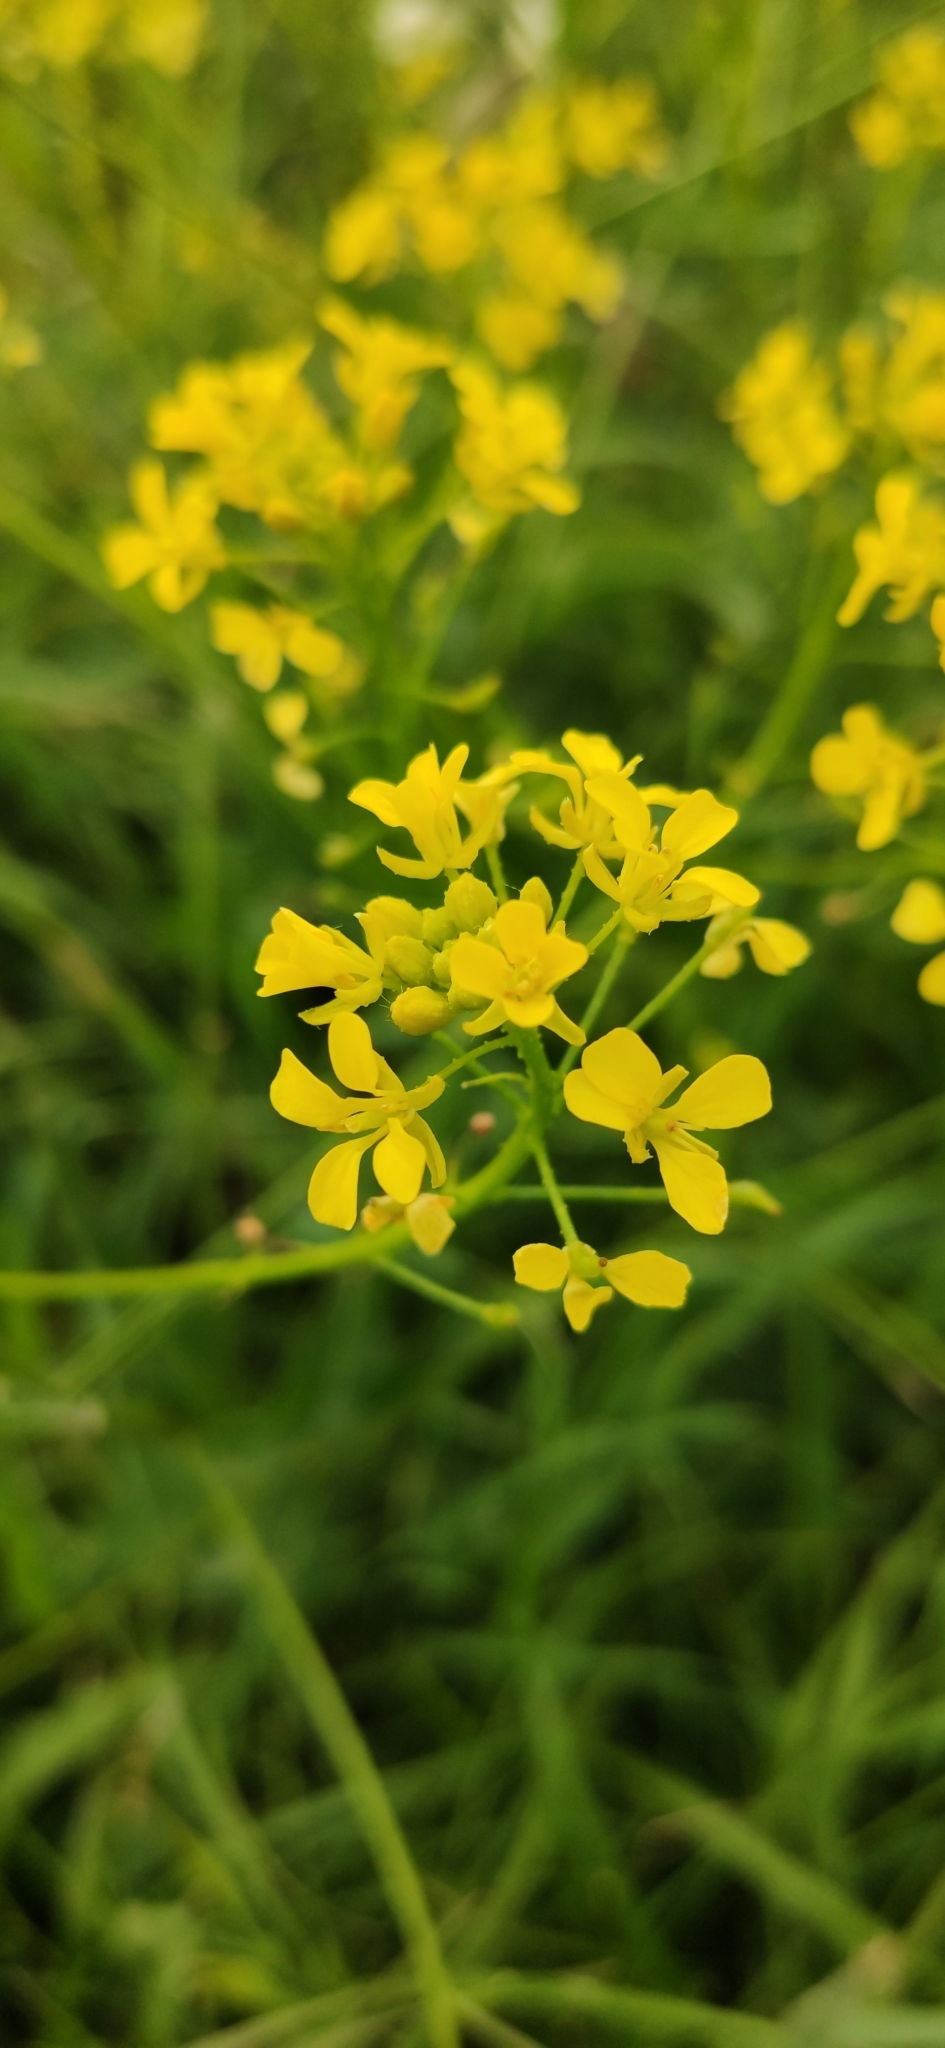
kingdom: Plantae
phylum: Tracheophyta
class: Magnoliopsida
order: Brassicales
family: Brassicaceae
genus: Bunias
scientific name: Bunias orientalis
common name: Warty-cabbage
